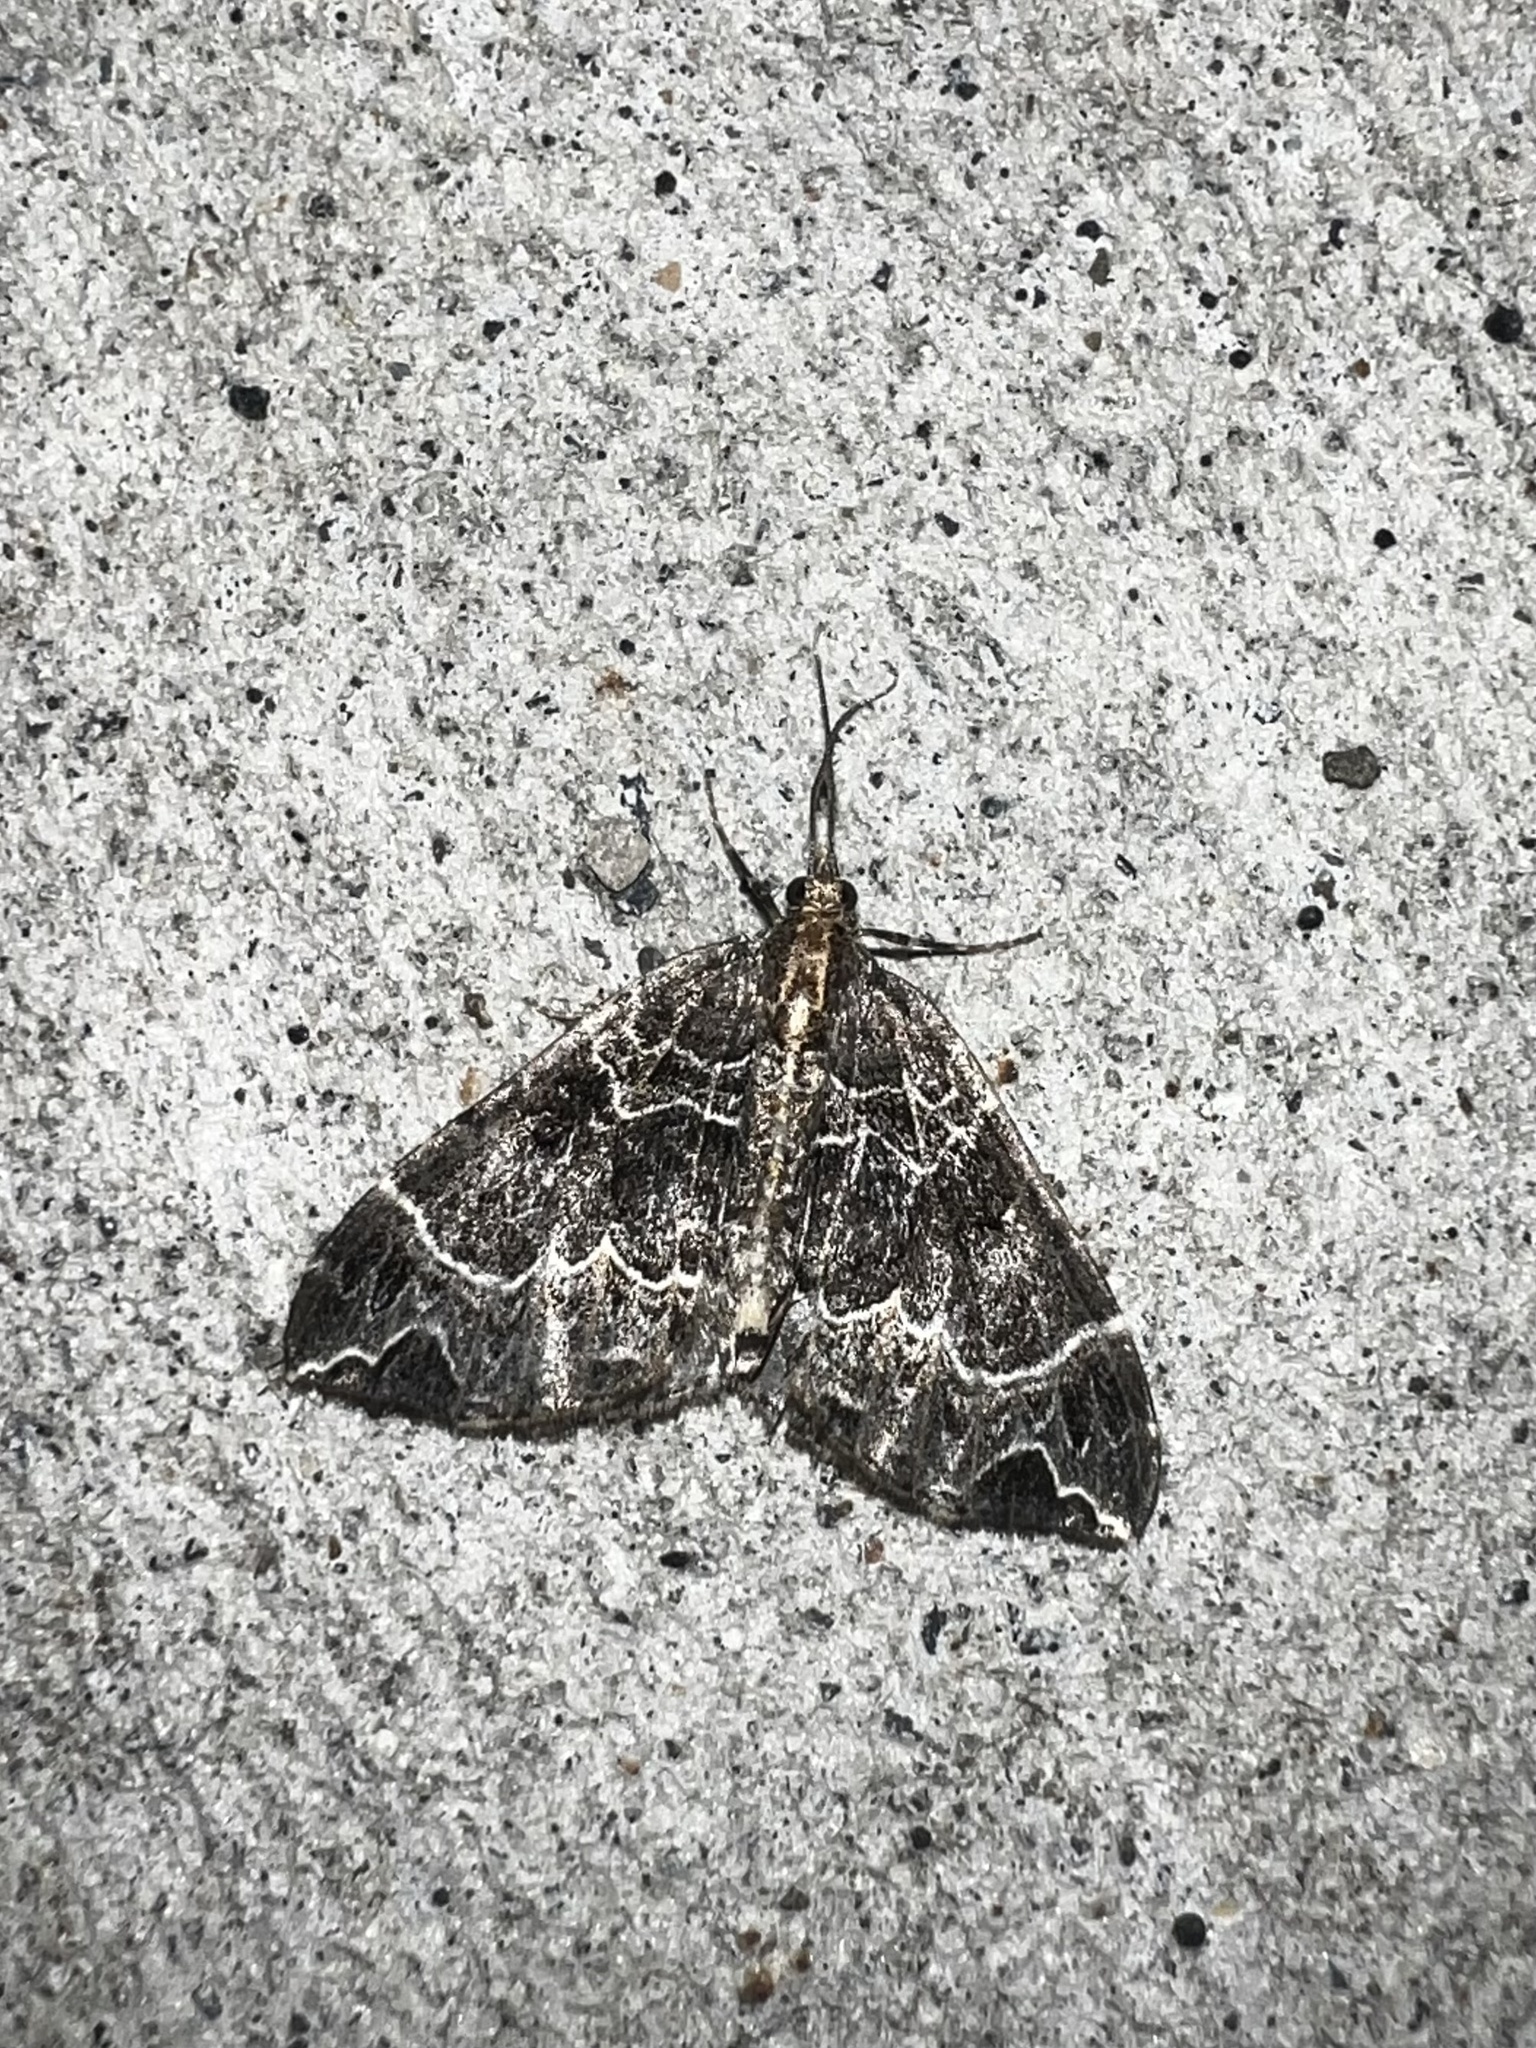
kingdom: Animalia
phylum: Arthropoda
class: Insecta
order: Lepidoptera
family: Geometridae
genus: Ecliptopera
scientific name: Ecliptopera silaceata
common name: Small phoenix
